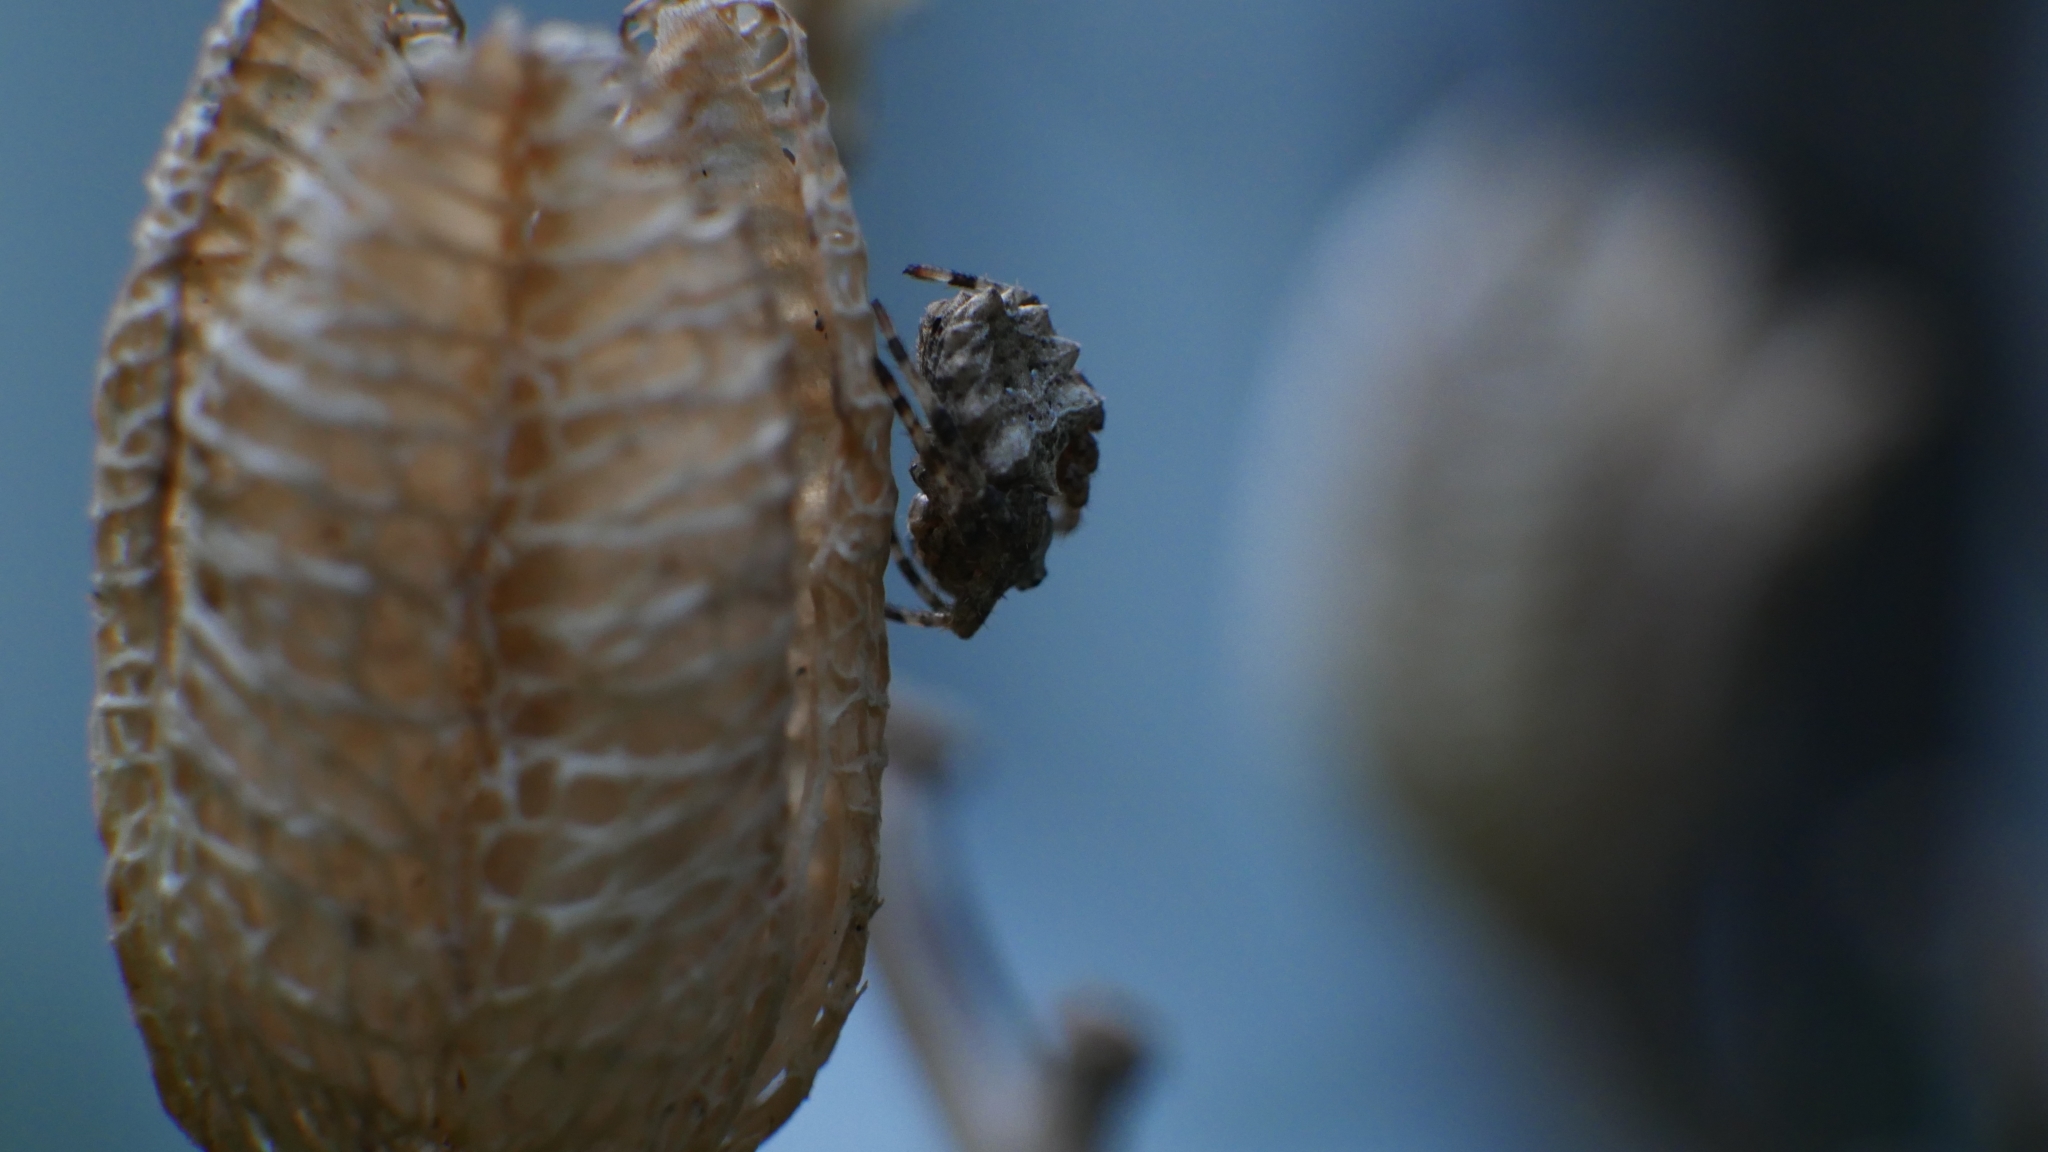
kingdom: Animalia
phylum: Arthropoda
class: Arachnida
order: Araneae
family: Araneidae
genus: Acanthepeira
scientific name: Acanthepeira stellata
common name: Starbellied orbweaver
